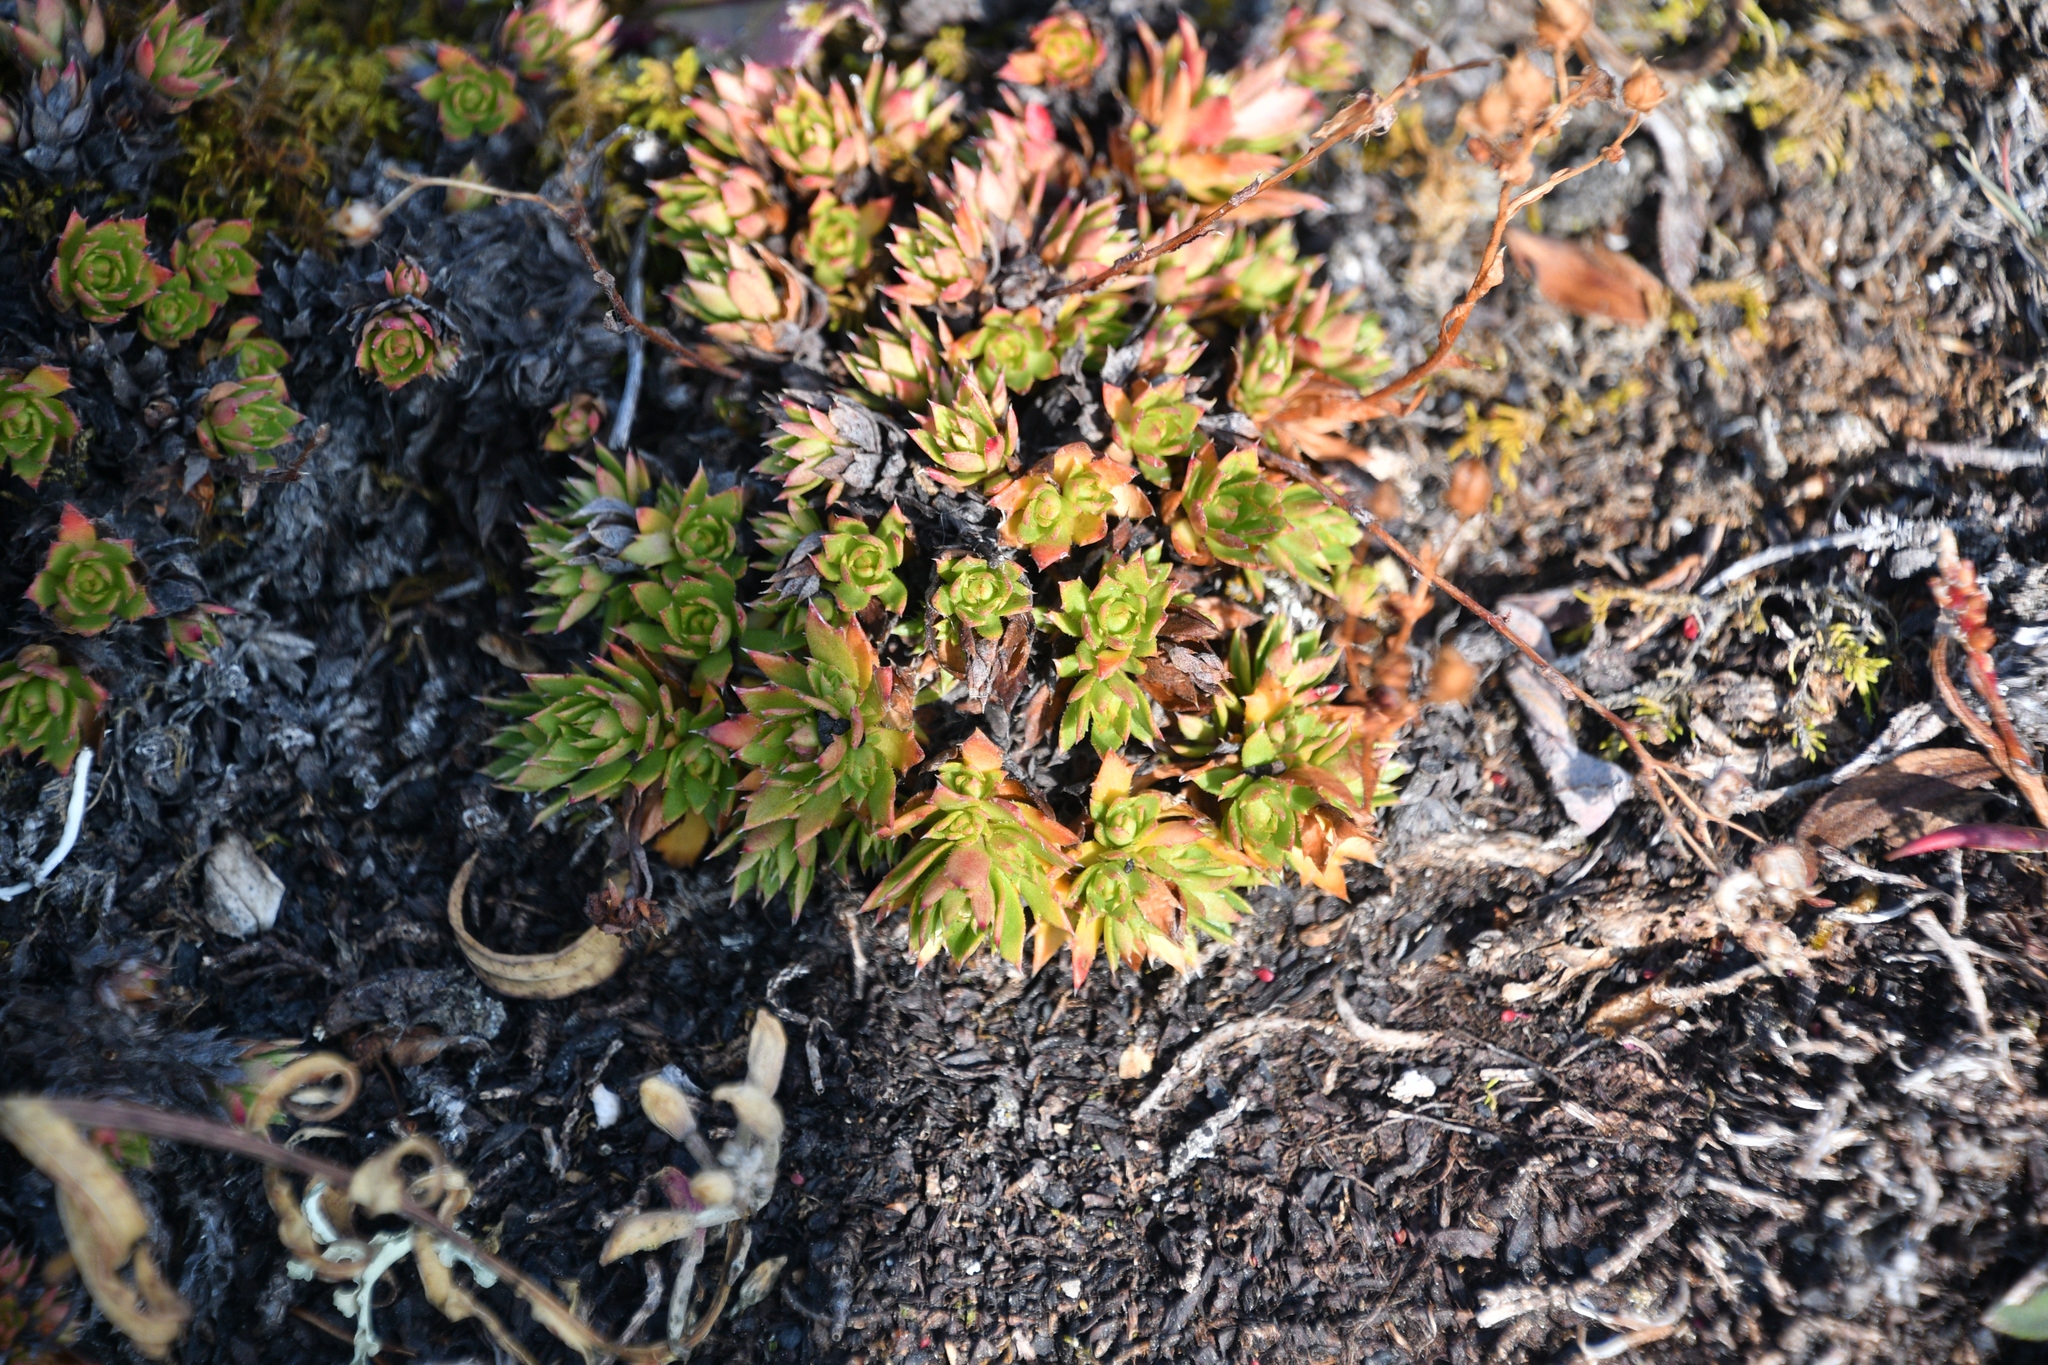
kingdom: Plantae
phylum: Tracheophyta
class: Magnoliopsida
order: Saxifragales
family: Saxifragaceae
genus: Saxifraga
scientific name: Saxifraga tricuspidata
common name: Prickly saxifrage
